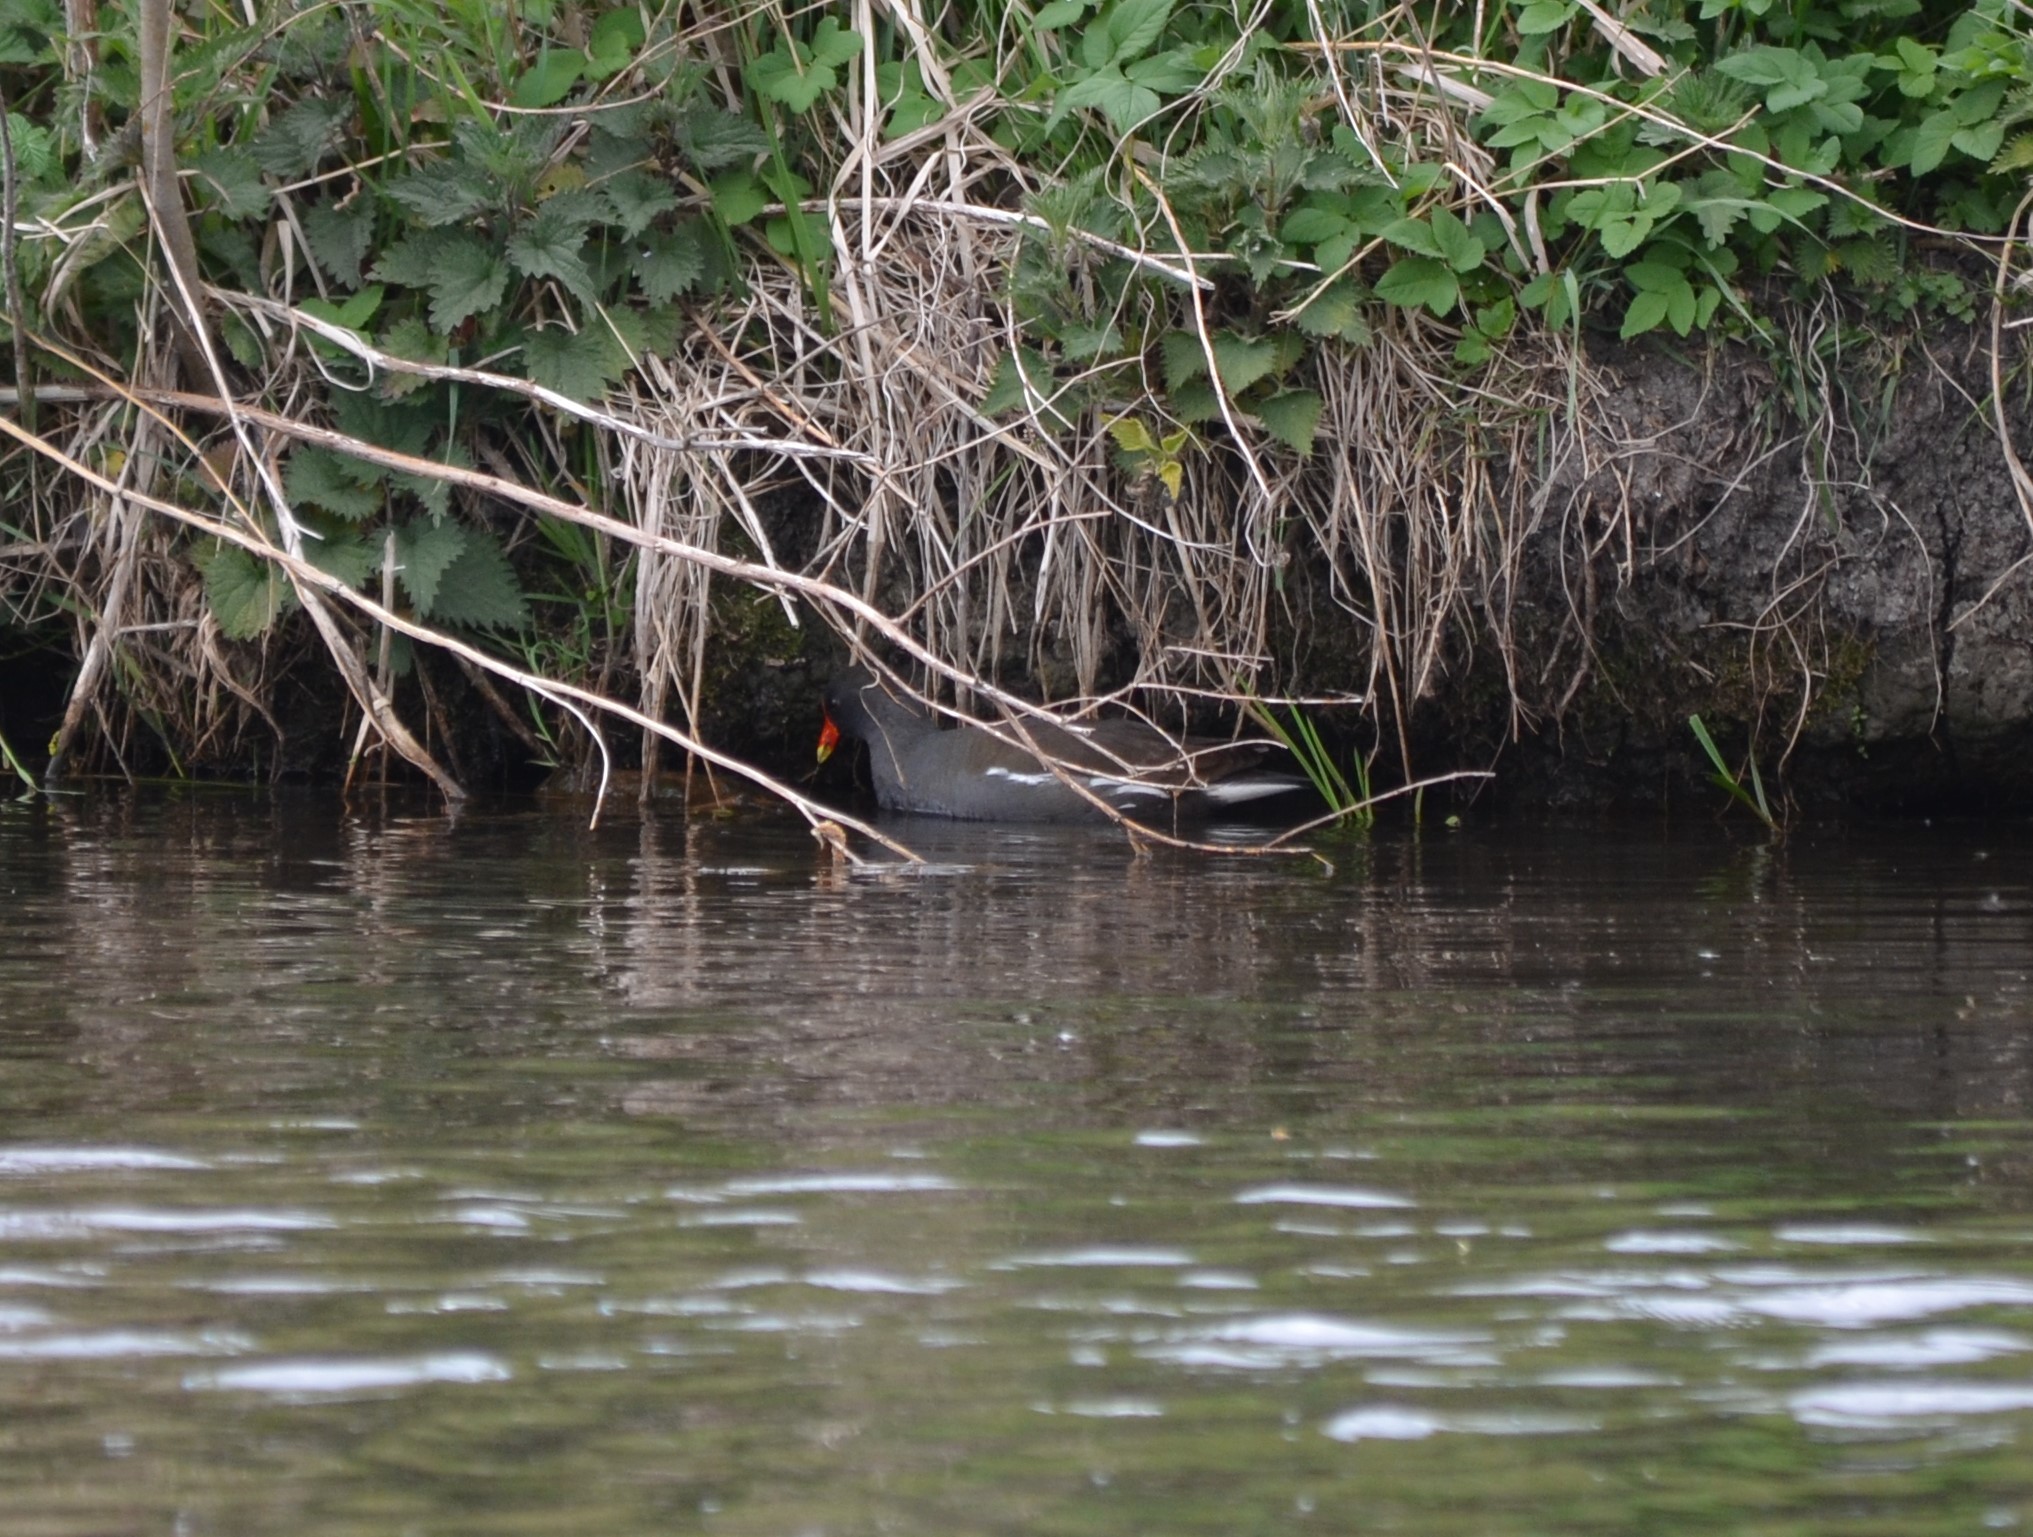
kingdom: Animalia
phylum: Chordata
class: Aves
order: Gruiformes
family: Rallidae
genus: Gallinula
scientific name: Gallinula chloropus
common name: Common moorhen
